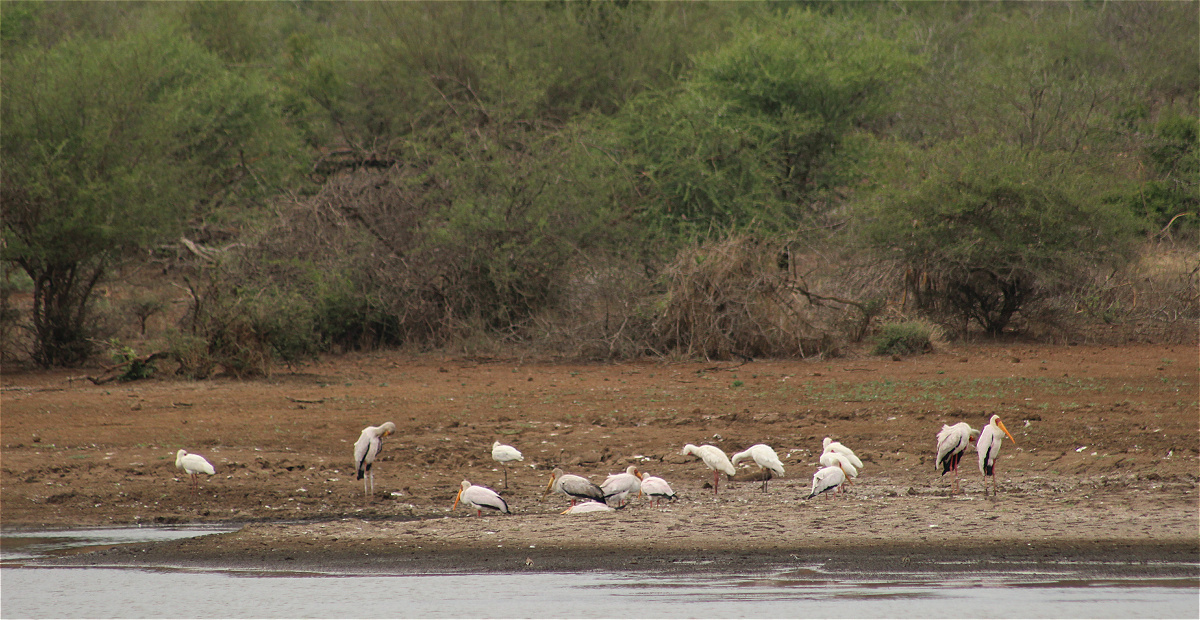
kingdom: Animalia
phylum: Chordata
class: Aves
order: Ciconiiformes
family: Ciconiidae
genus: Mycteria
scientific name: Mycteria ibis
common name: Yellow-billed stork
